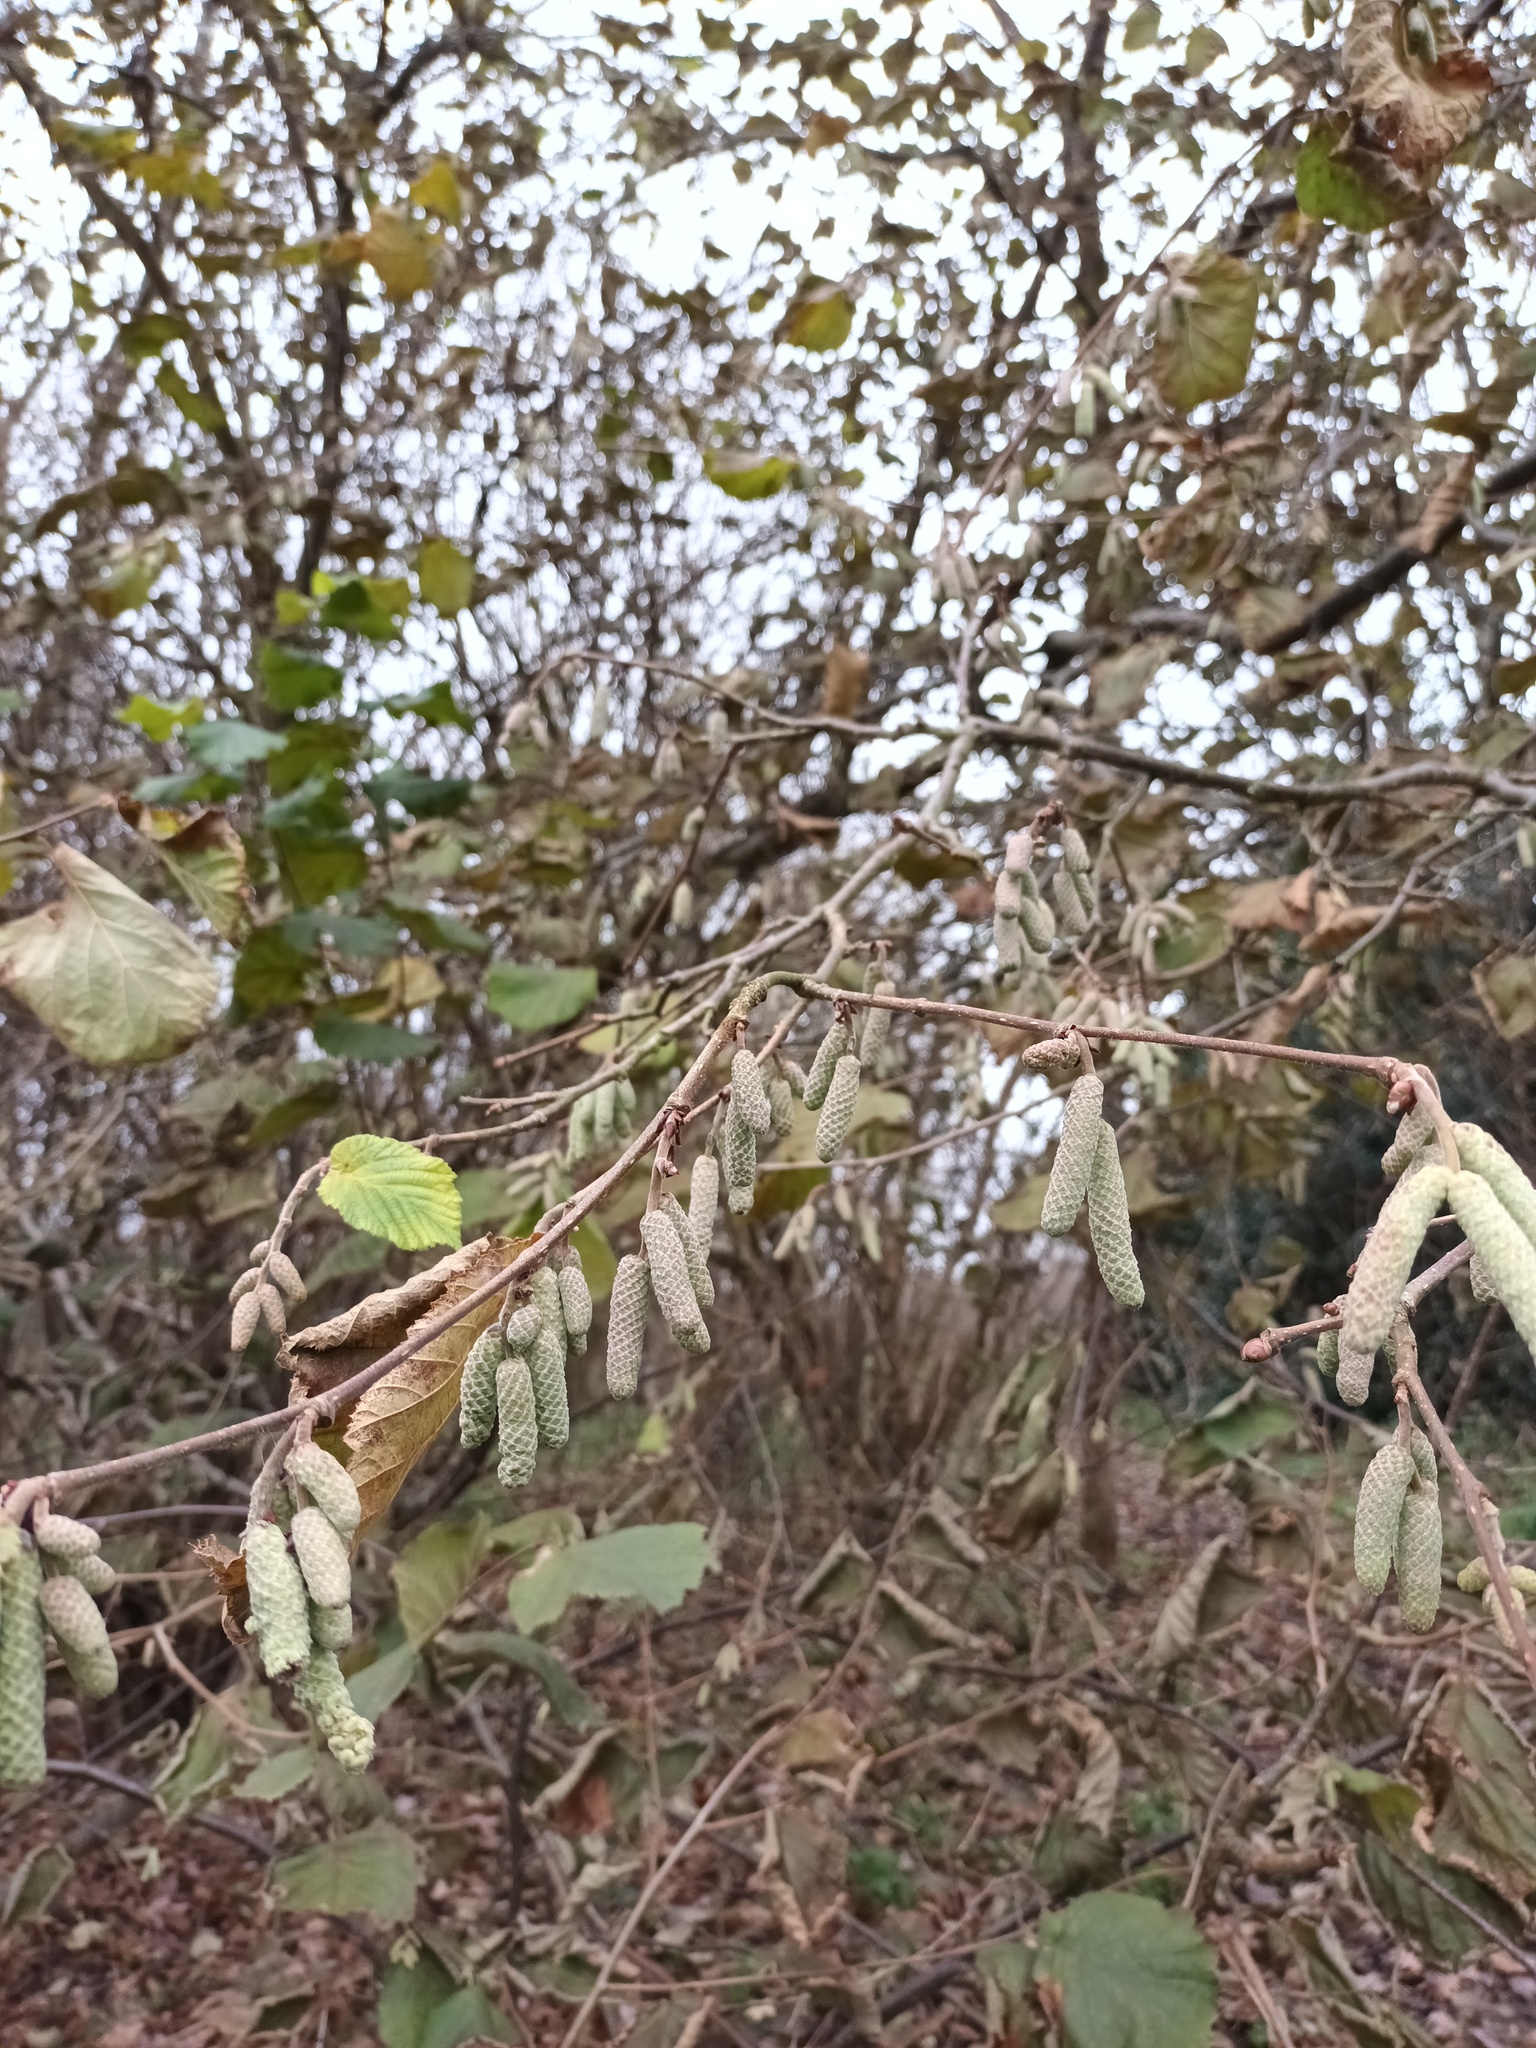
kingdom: Plantae
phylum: Tracheophyta
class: Magnoliopsida
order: Fagales
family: Betulaceae
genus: Corylus
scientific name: Corylus avellana
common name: European hazel
